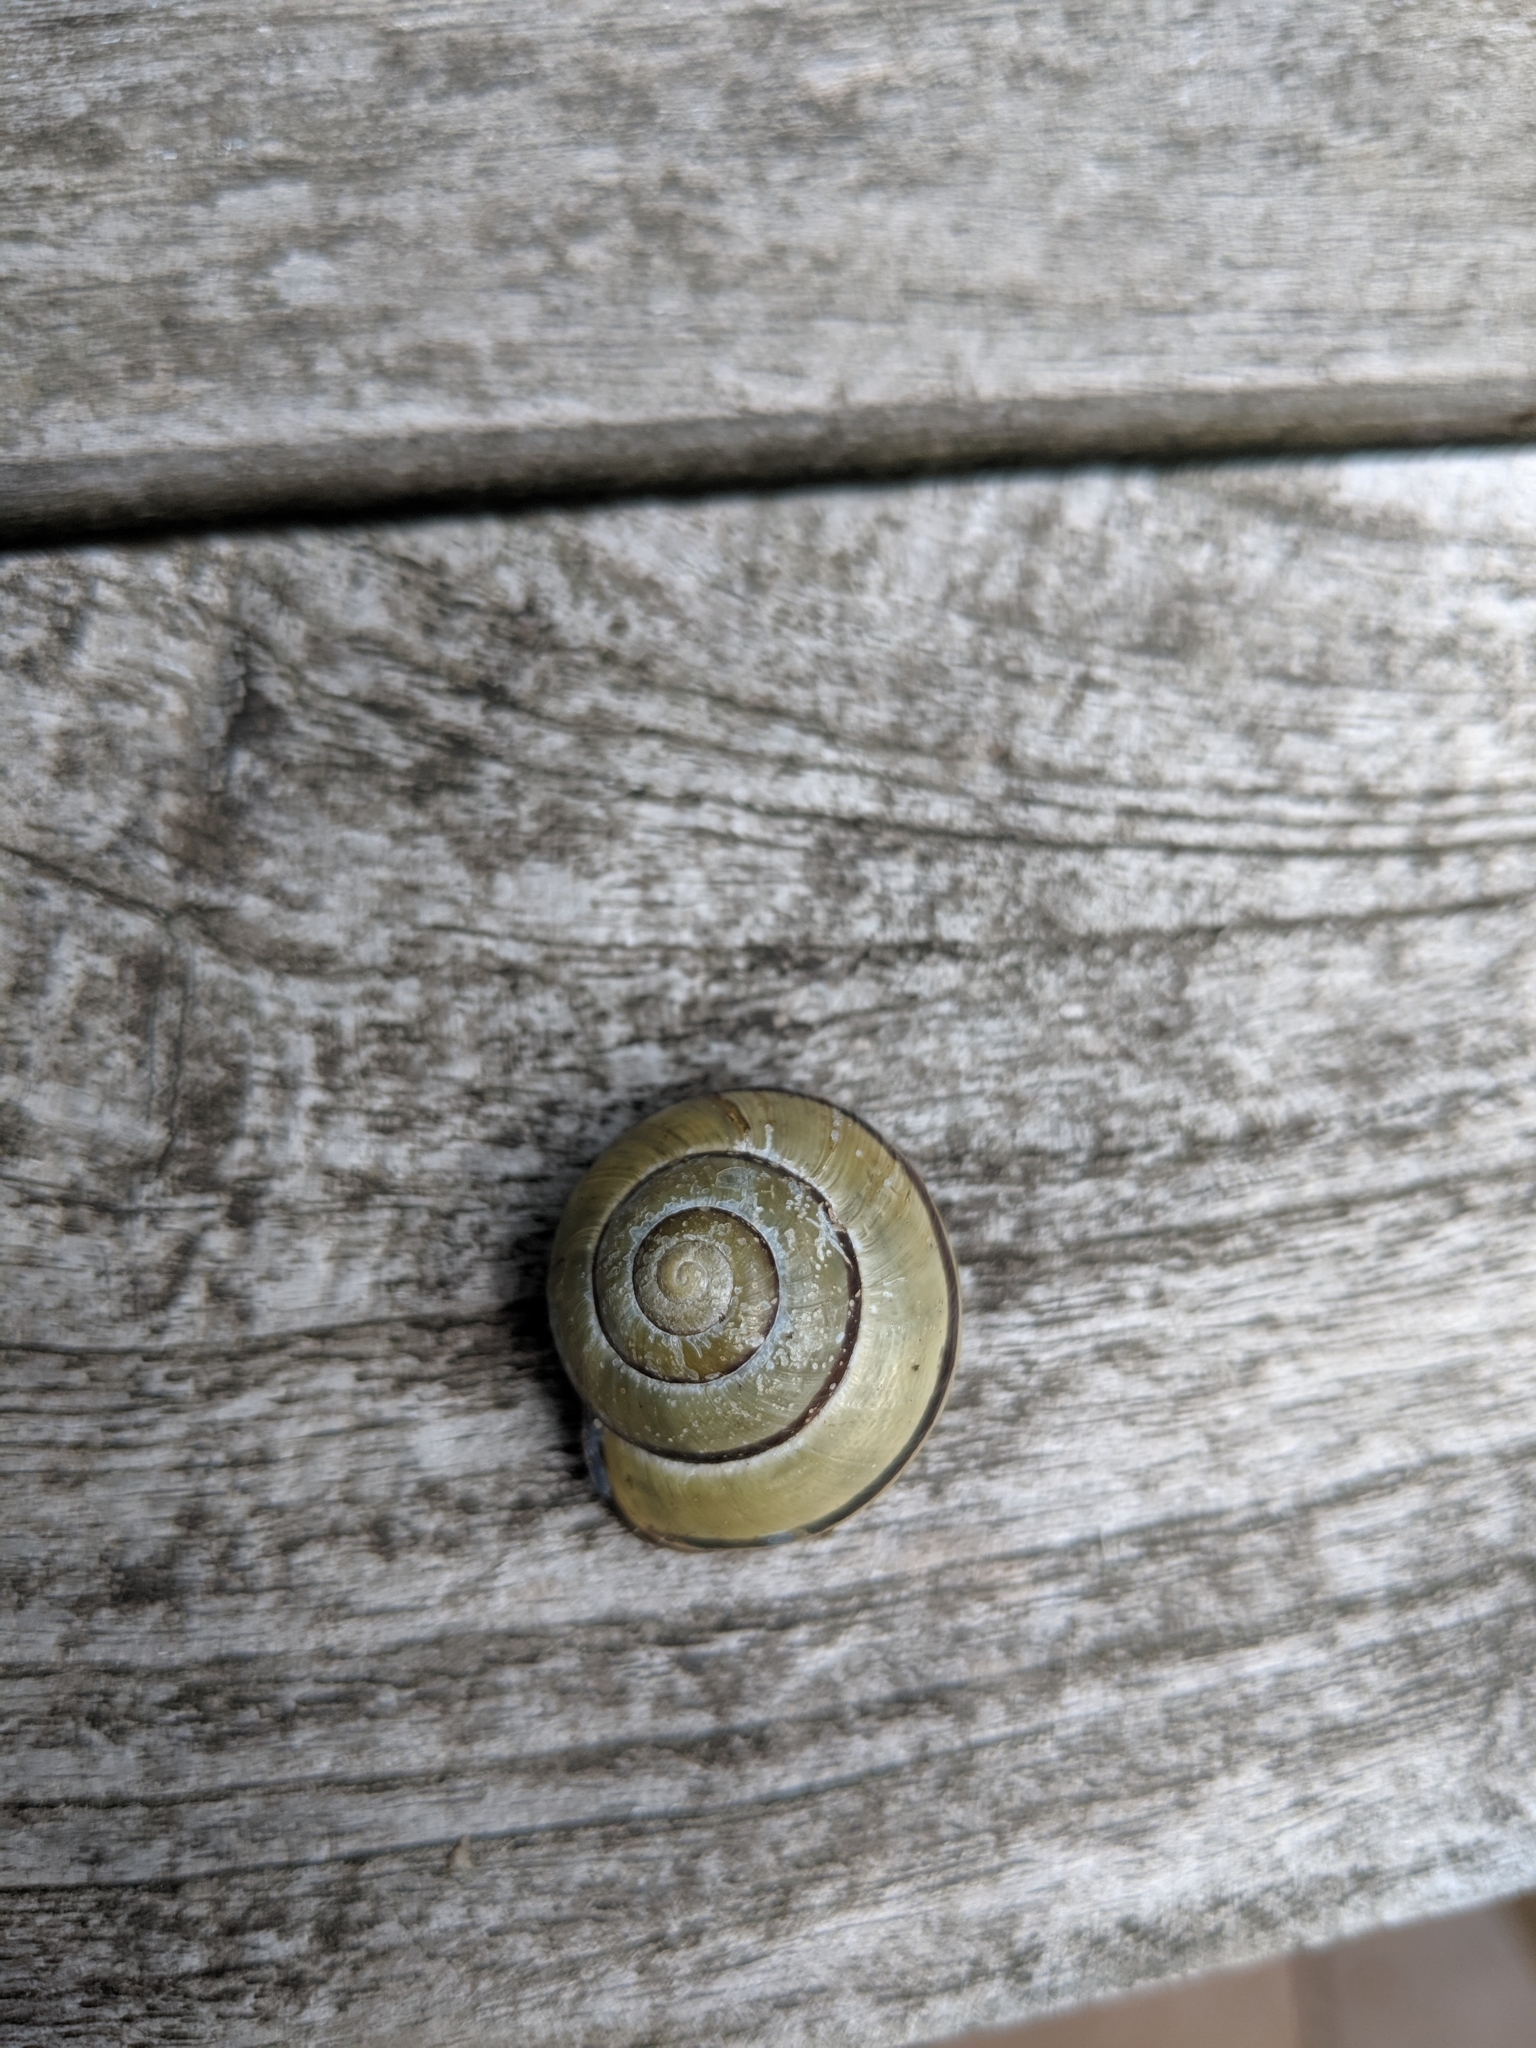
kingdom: Animalia
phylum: Mollusca
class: Gastropoda
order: Stylommatophora
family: Helicidae
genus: Cepaea
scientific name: Cepaea nemoralis
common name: Grovesnail
